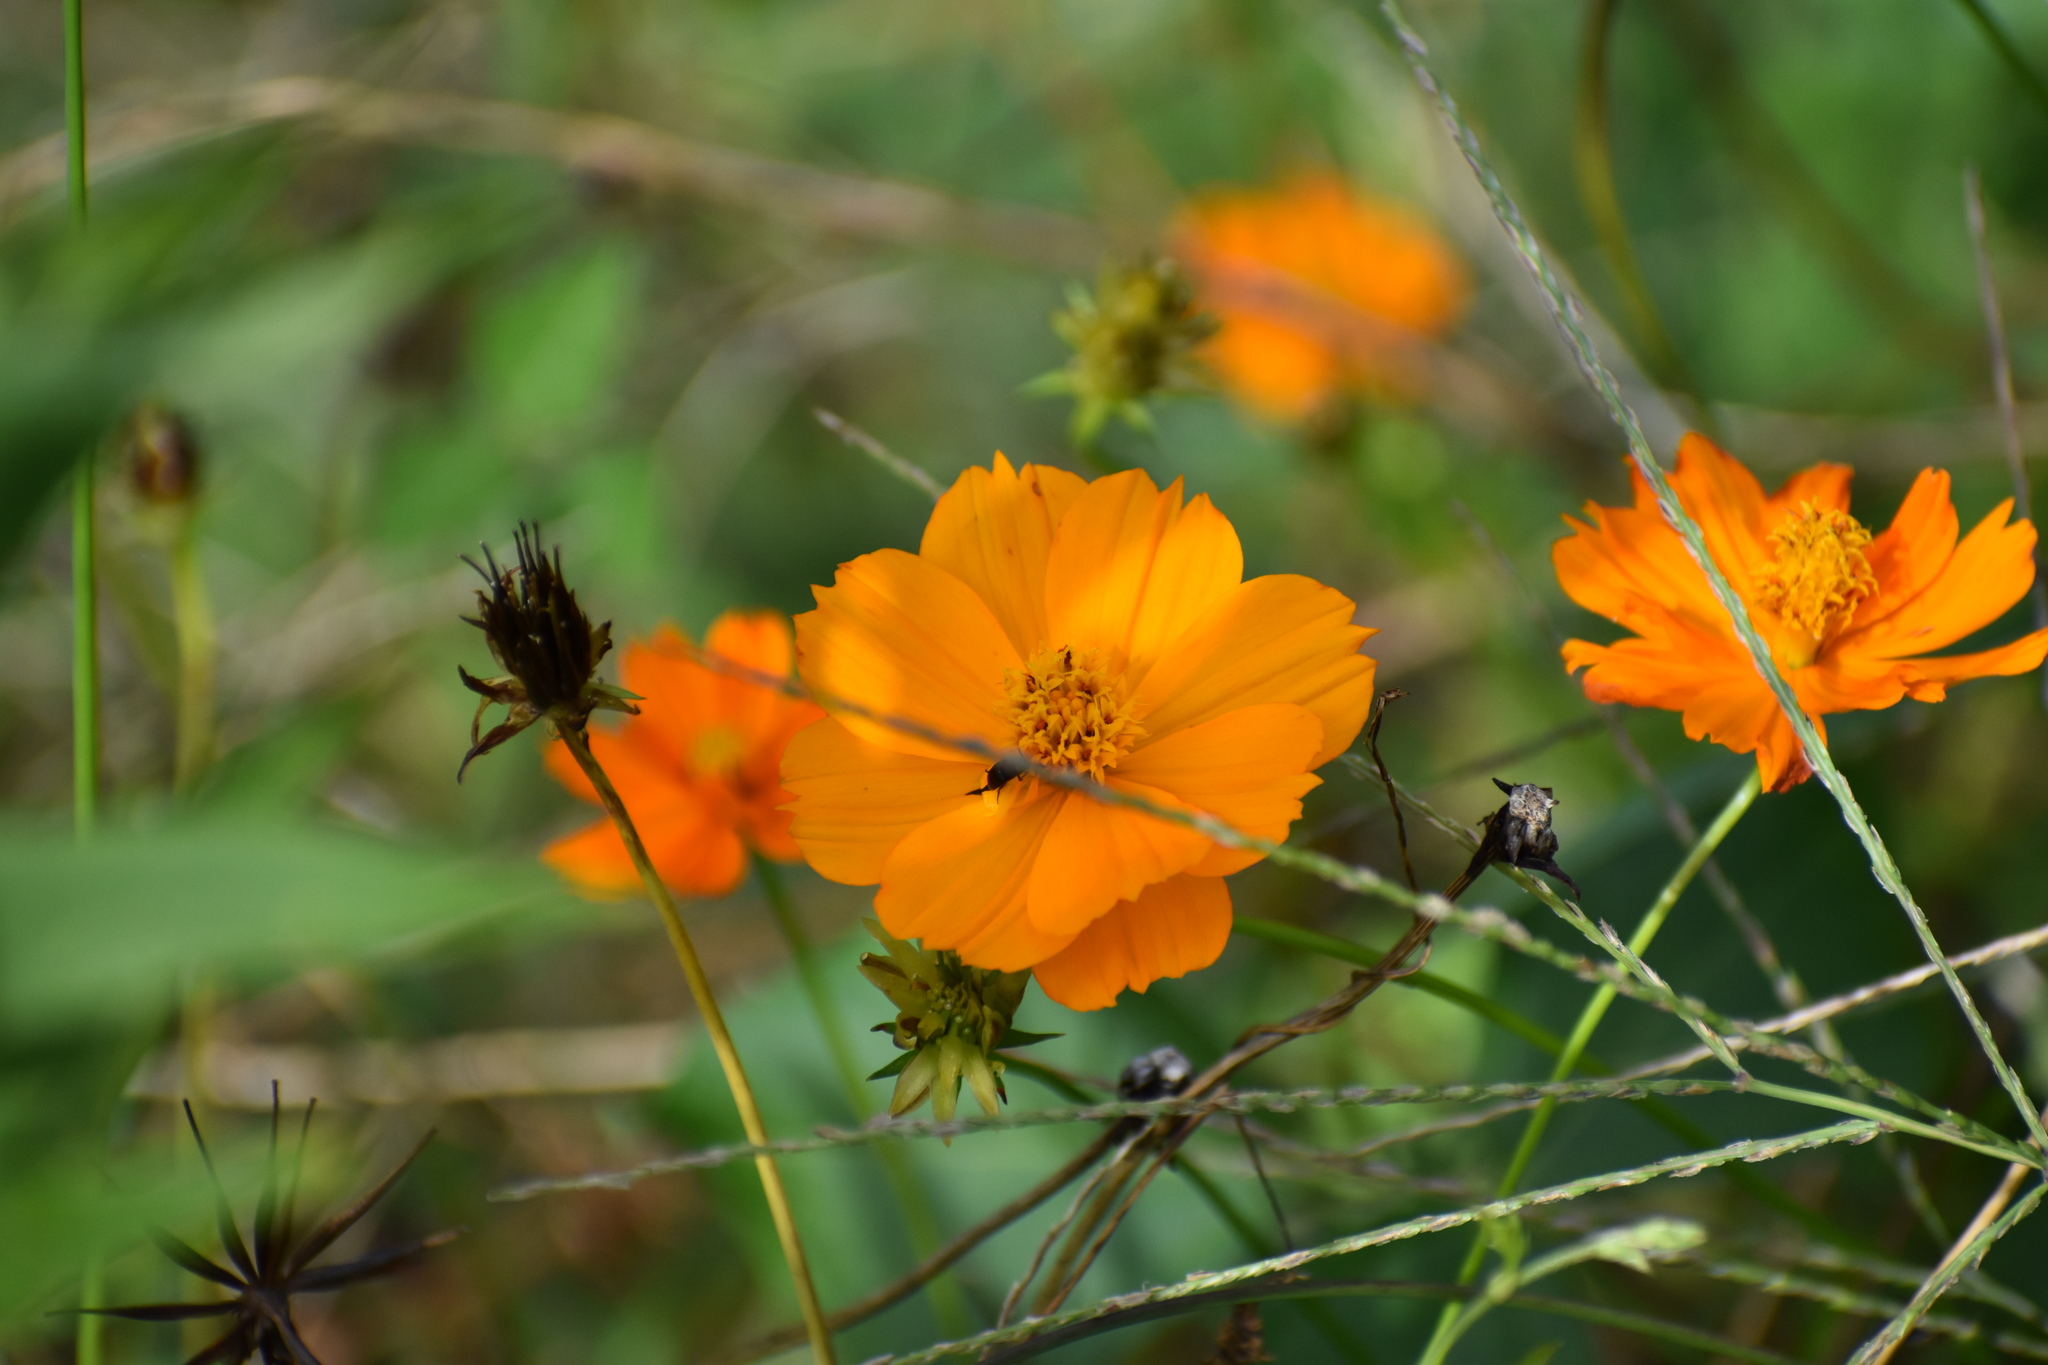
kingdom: Plantae
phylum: Tracheophyta
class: Magnoliopsida
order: Asterales
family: Asteraceae
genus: Cosmos
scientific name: Cosmos sulphureus
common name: Sulphur cosmos
